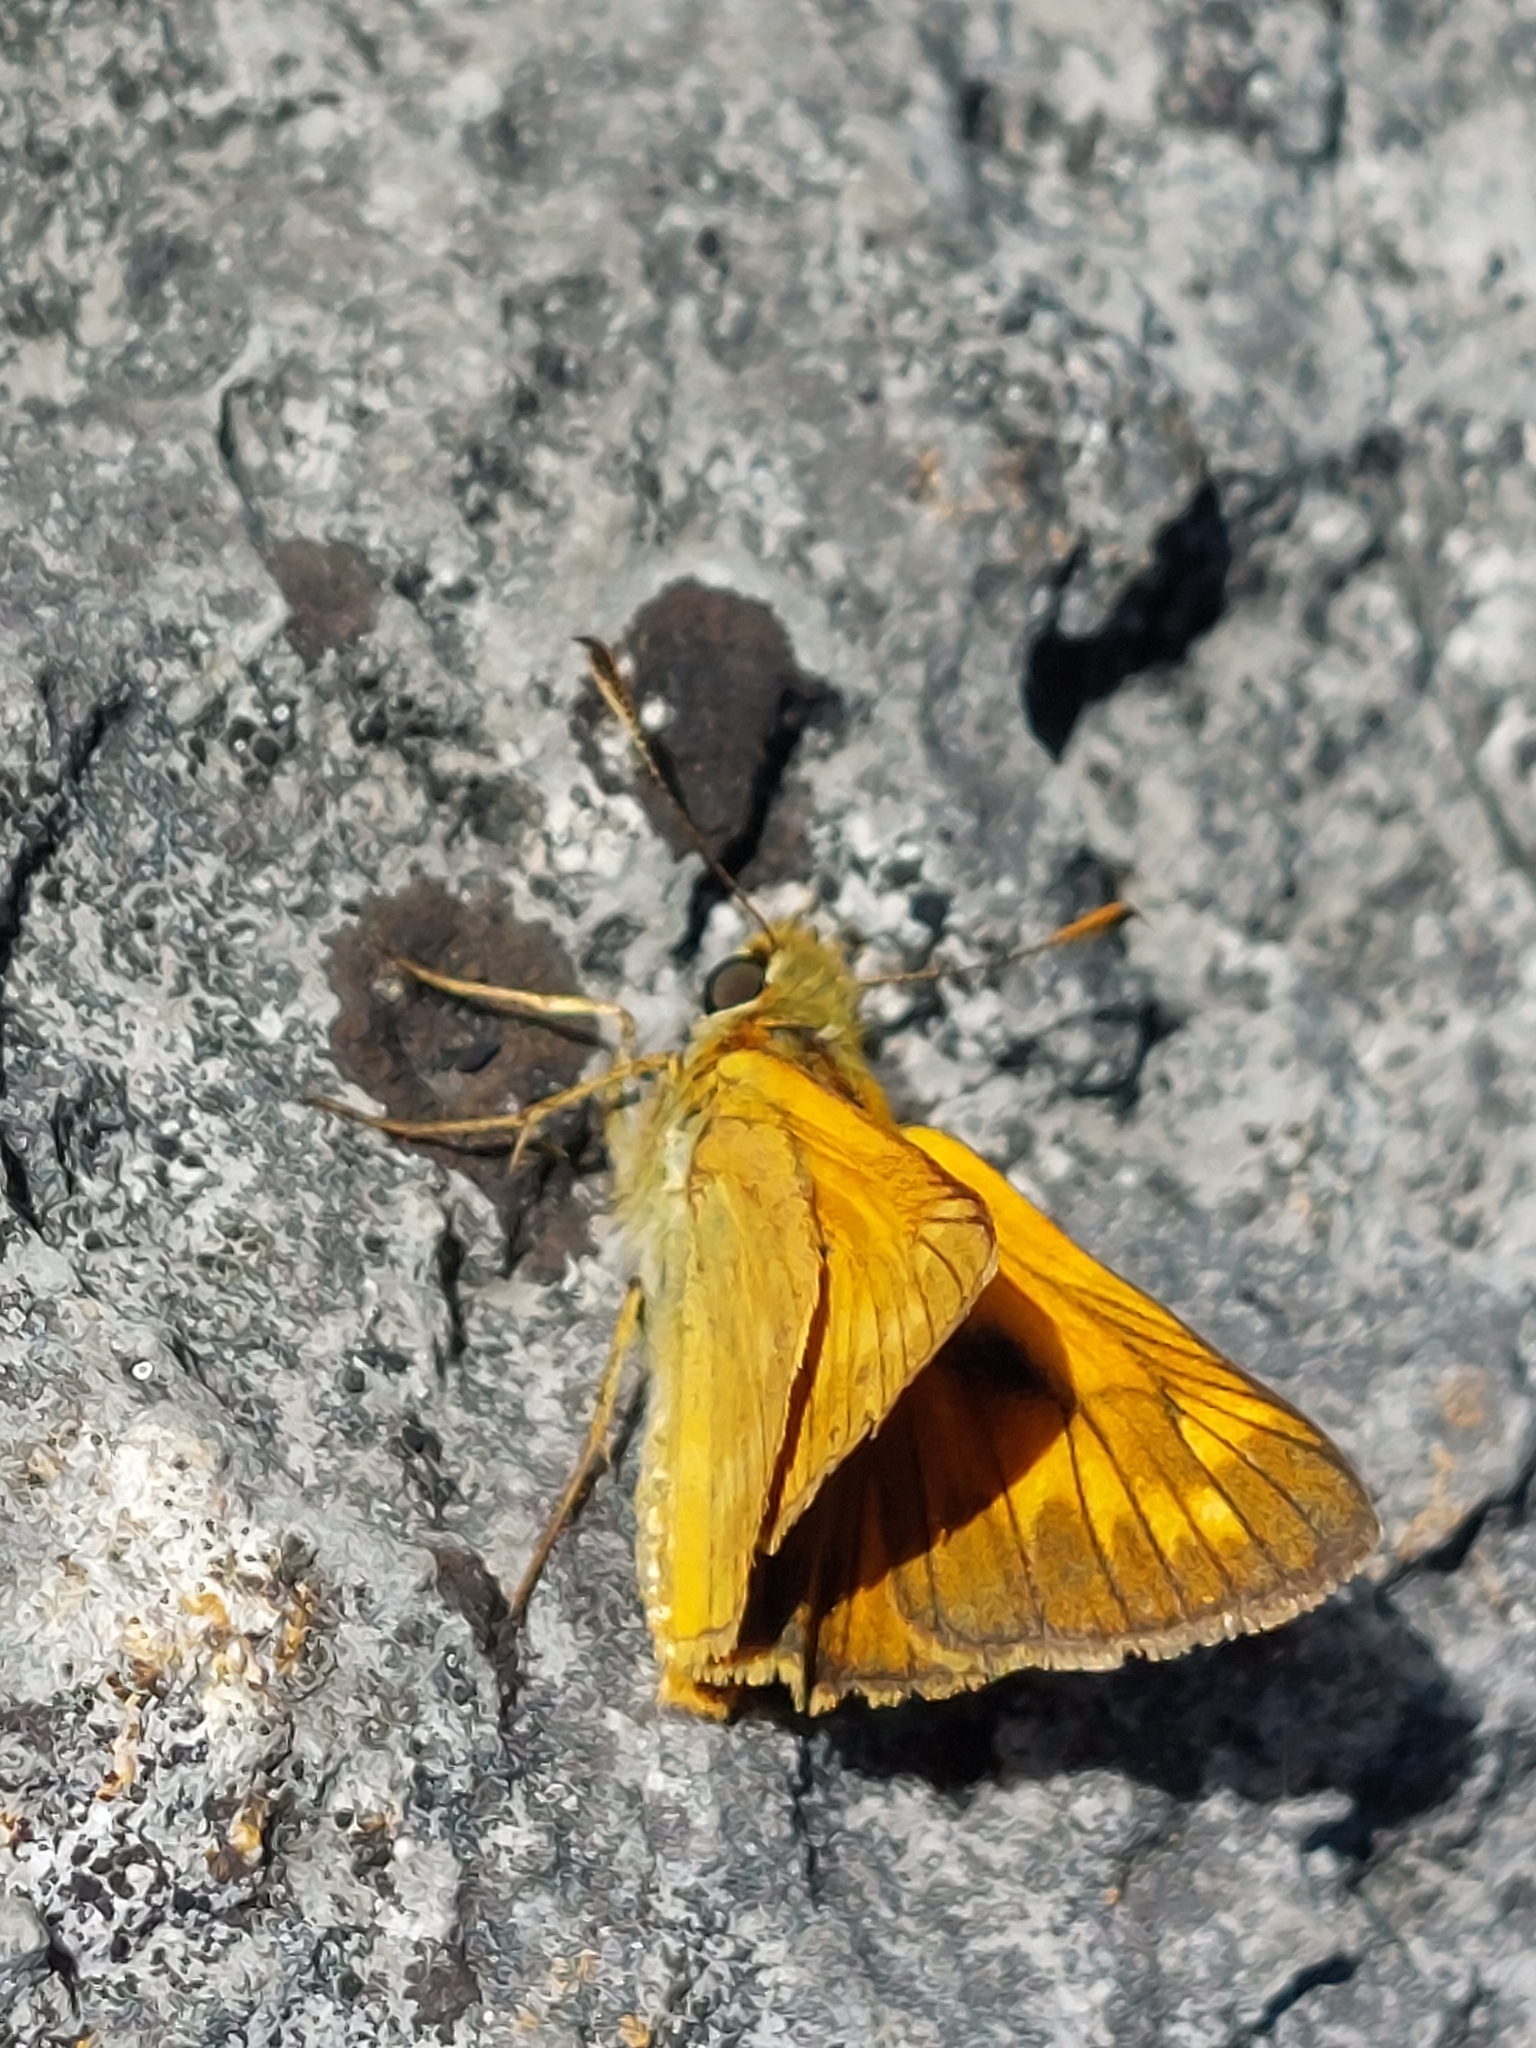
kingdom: Animalia
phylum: Arthropoda
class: Insecta
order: Lepidoptera
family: Hesperiidae
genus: Ochlodes
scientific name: Ochlodes venata
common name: Large skipper
